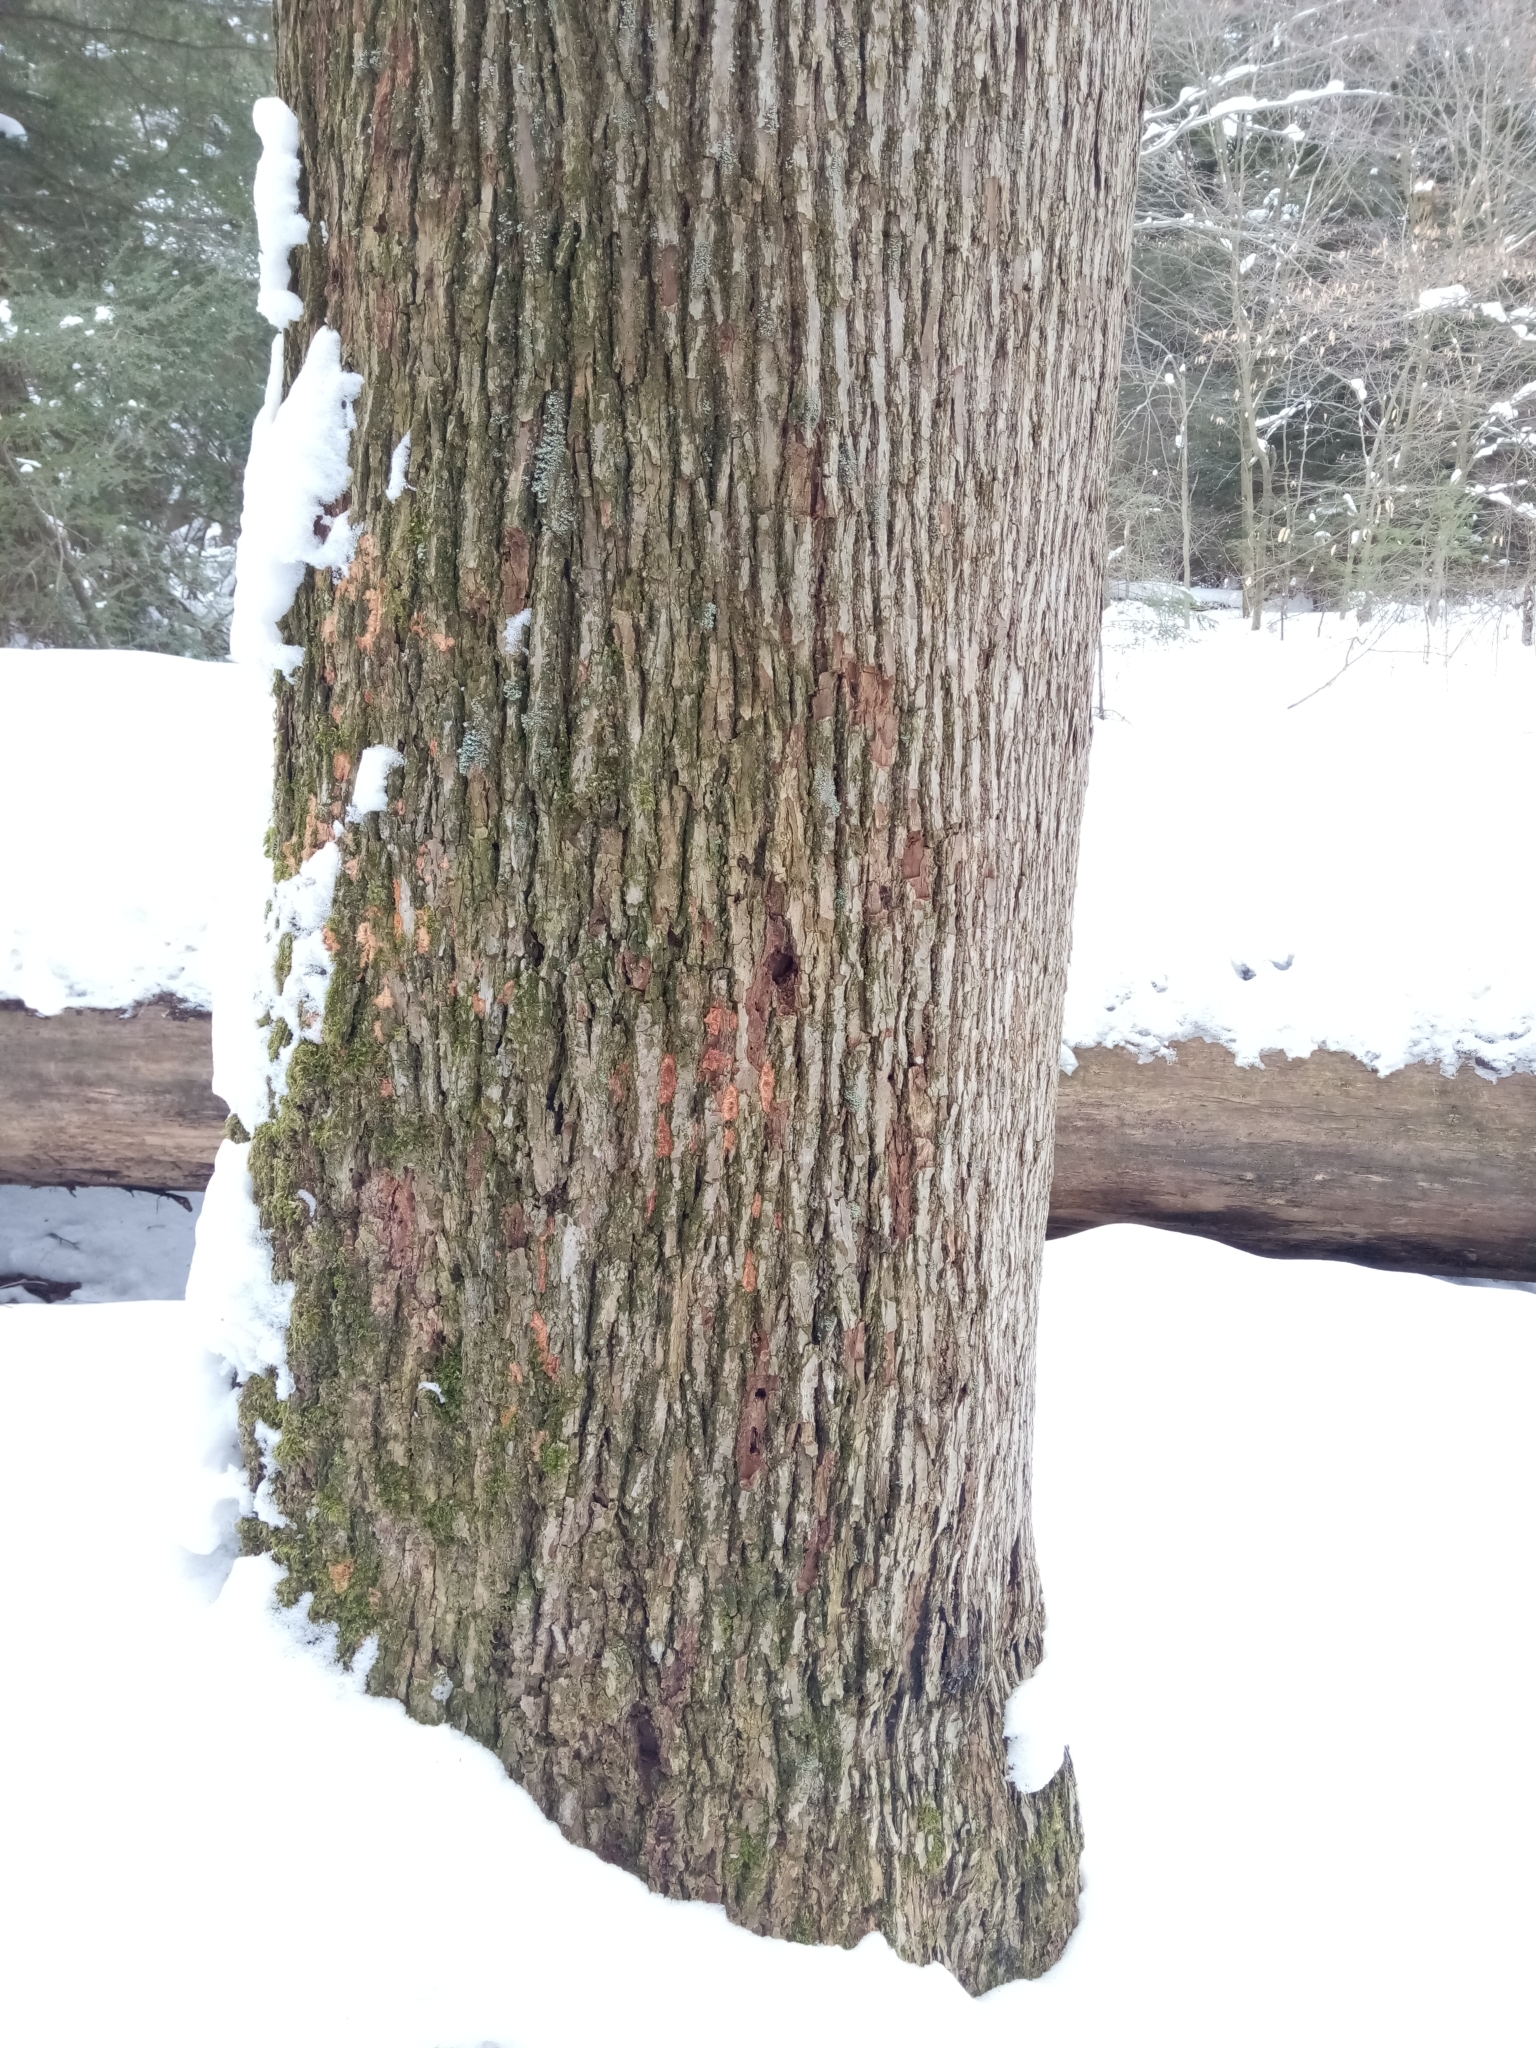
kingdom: Plantae
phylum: Tracheophyta
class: Magnoliopsida
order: Magnoliales
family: Magnoliaceae
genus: Magnolia
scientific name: Magnolia acuminata
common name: Cucumber magnolia
